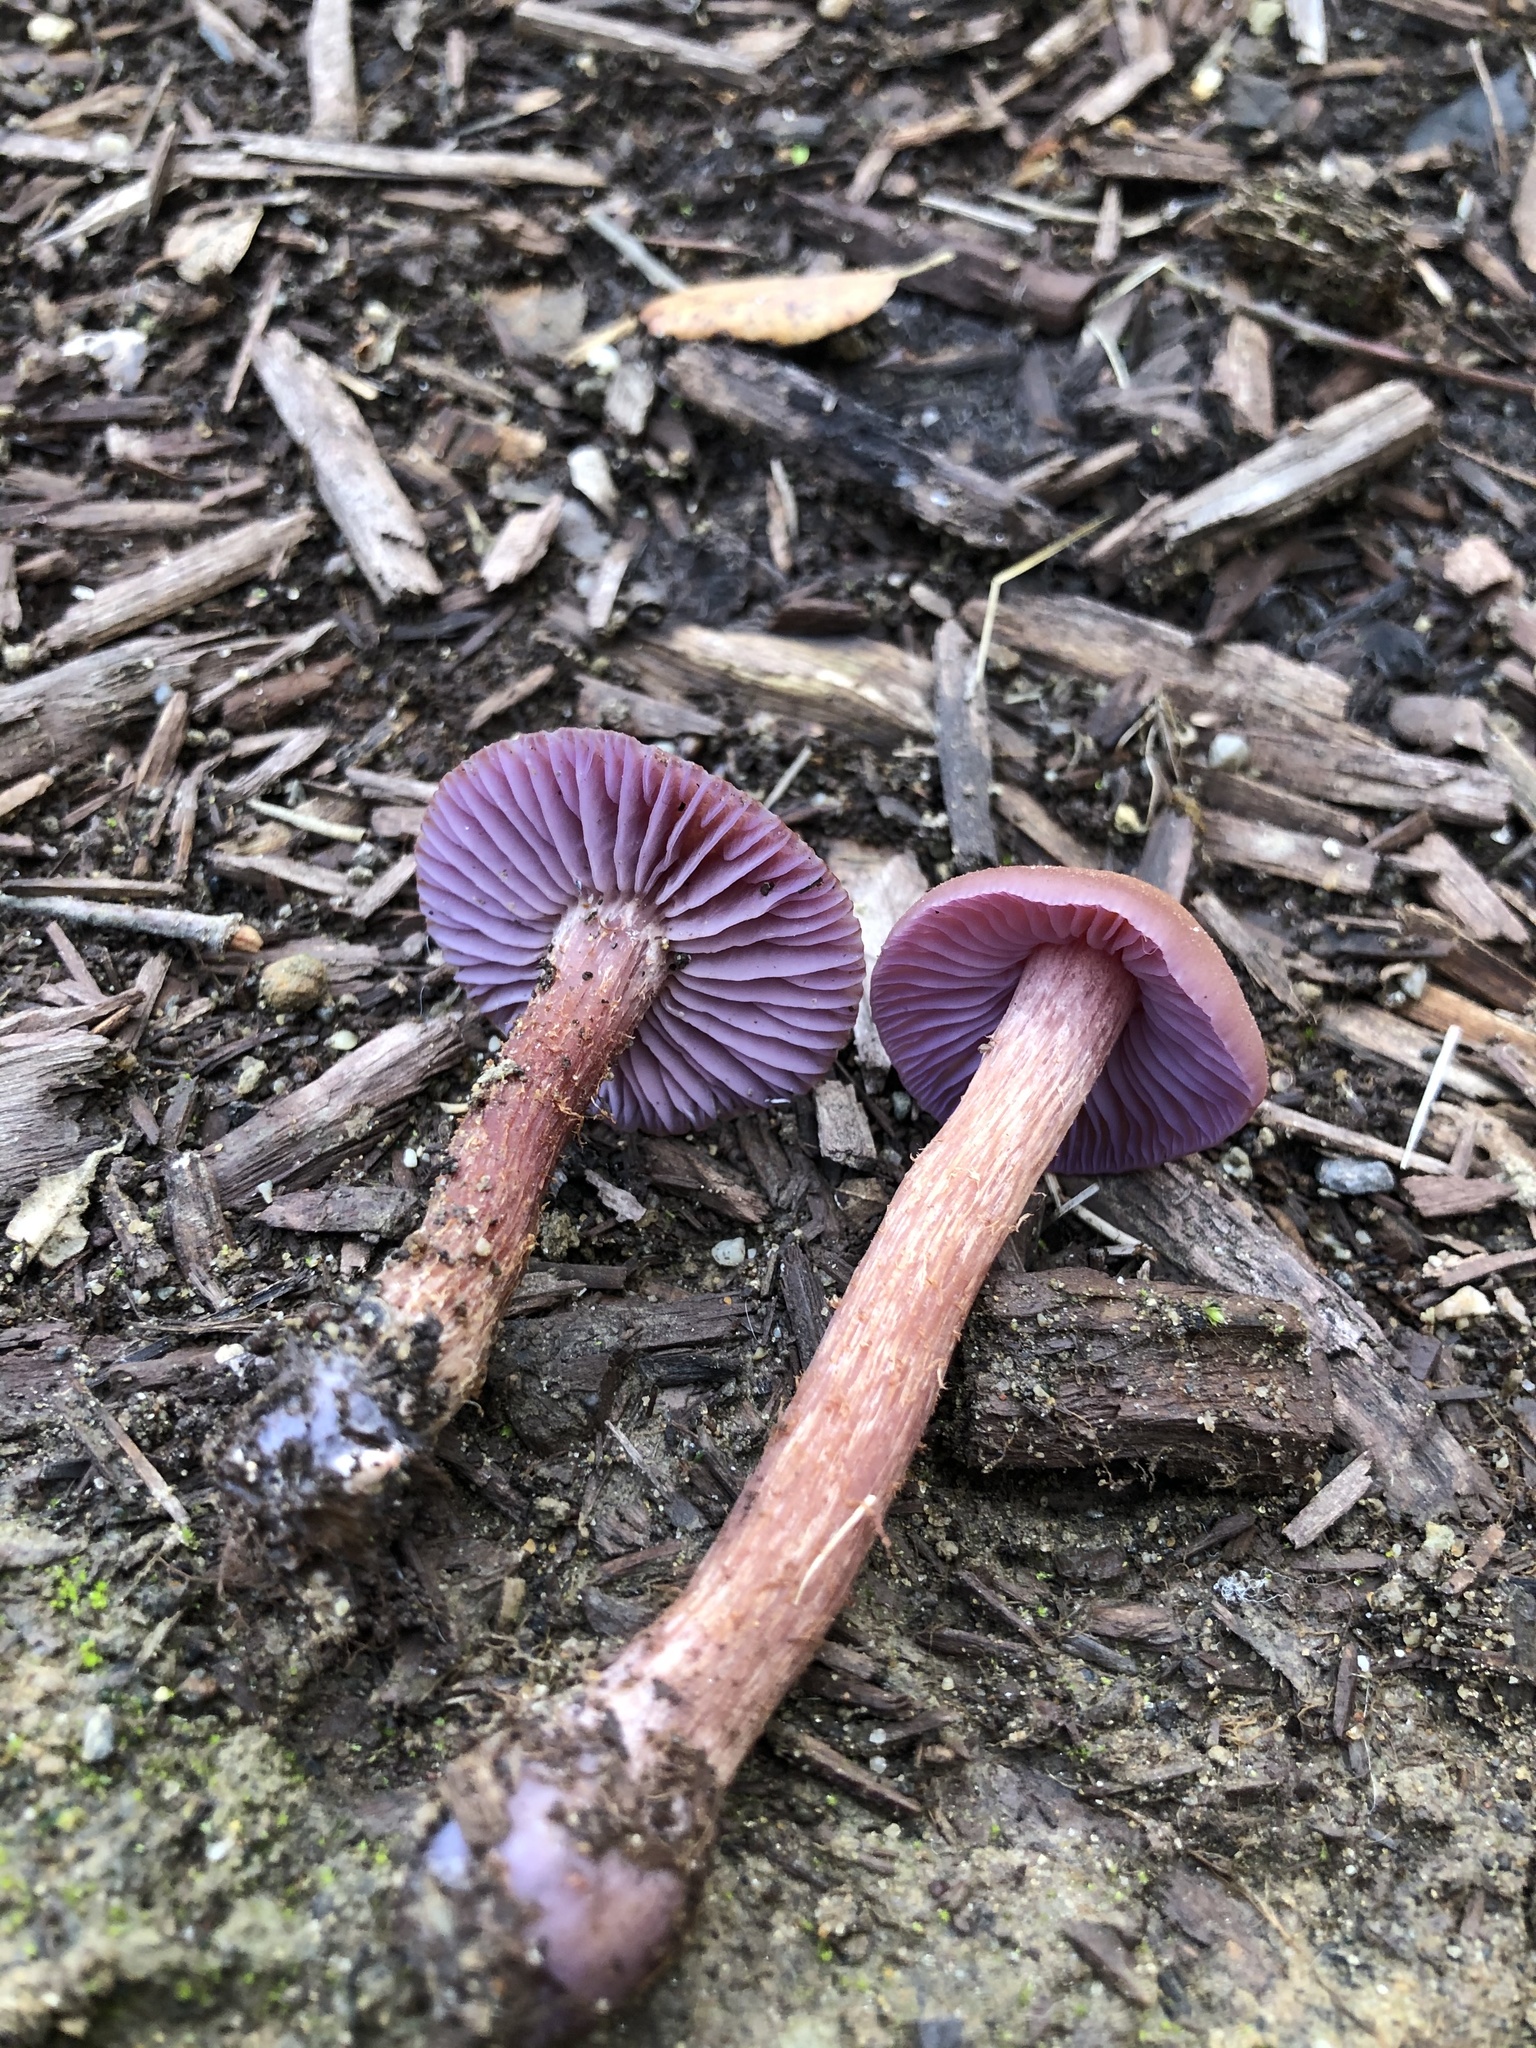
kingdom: Fungi
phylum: Basidiomycota
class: Agaricomycetes
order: Agaricales
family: Hydnangiaceae
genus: Laccaria
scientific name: Laccaria amethysteo-occidentalis
